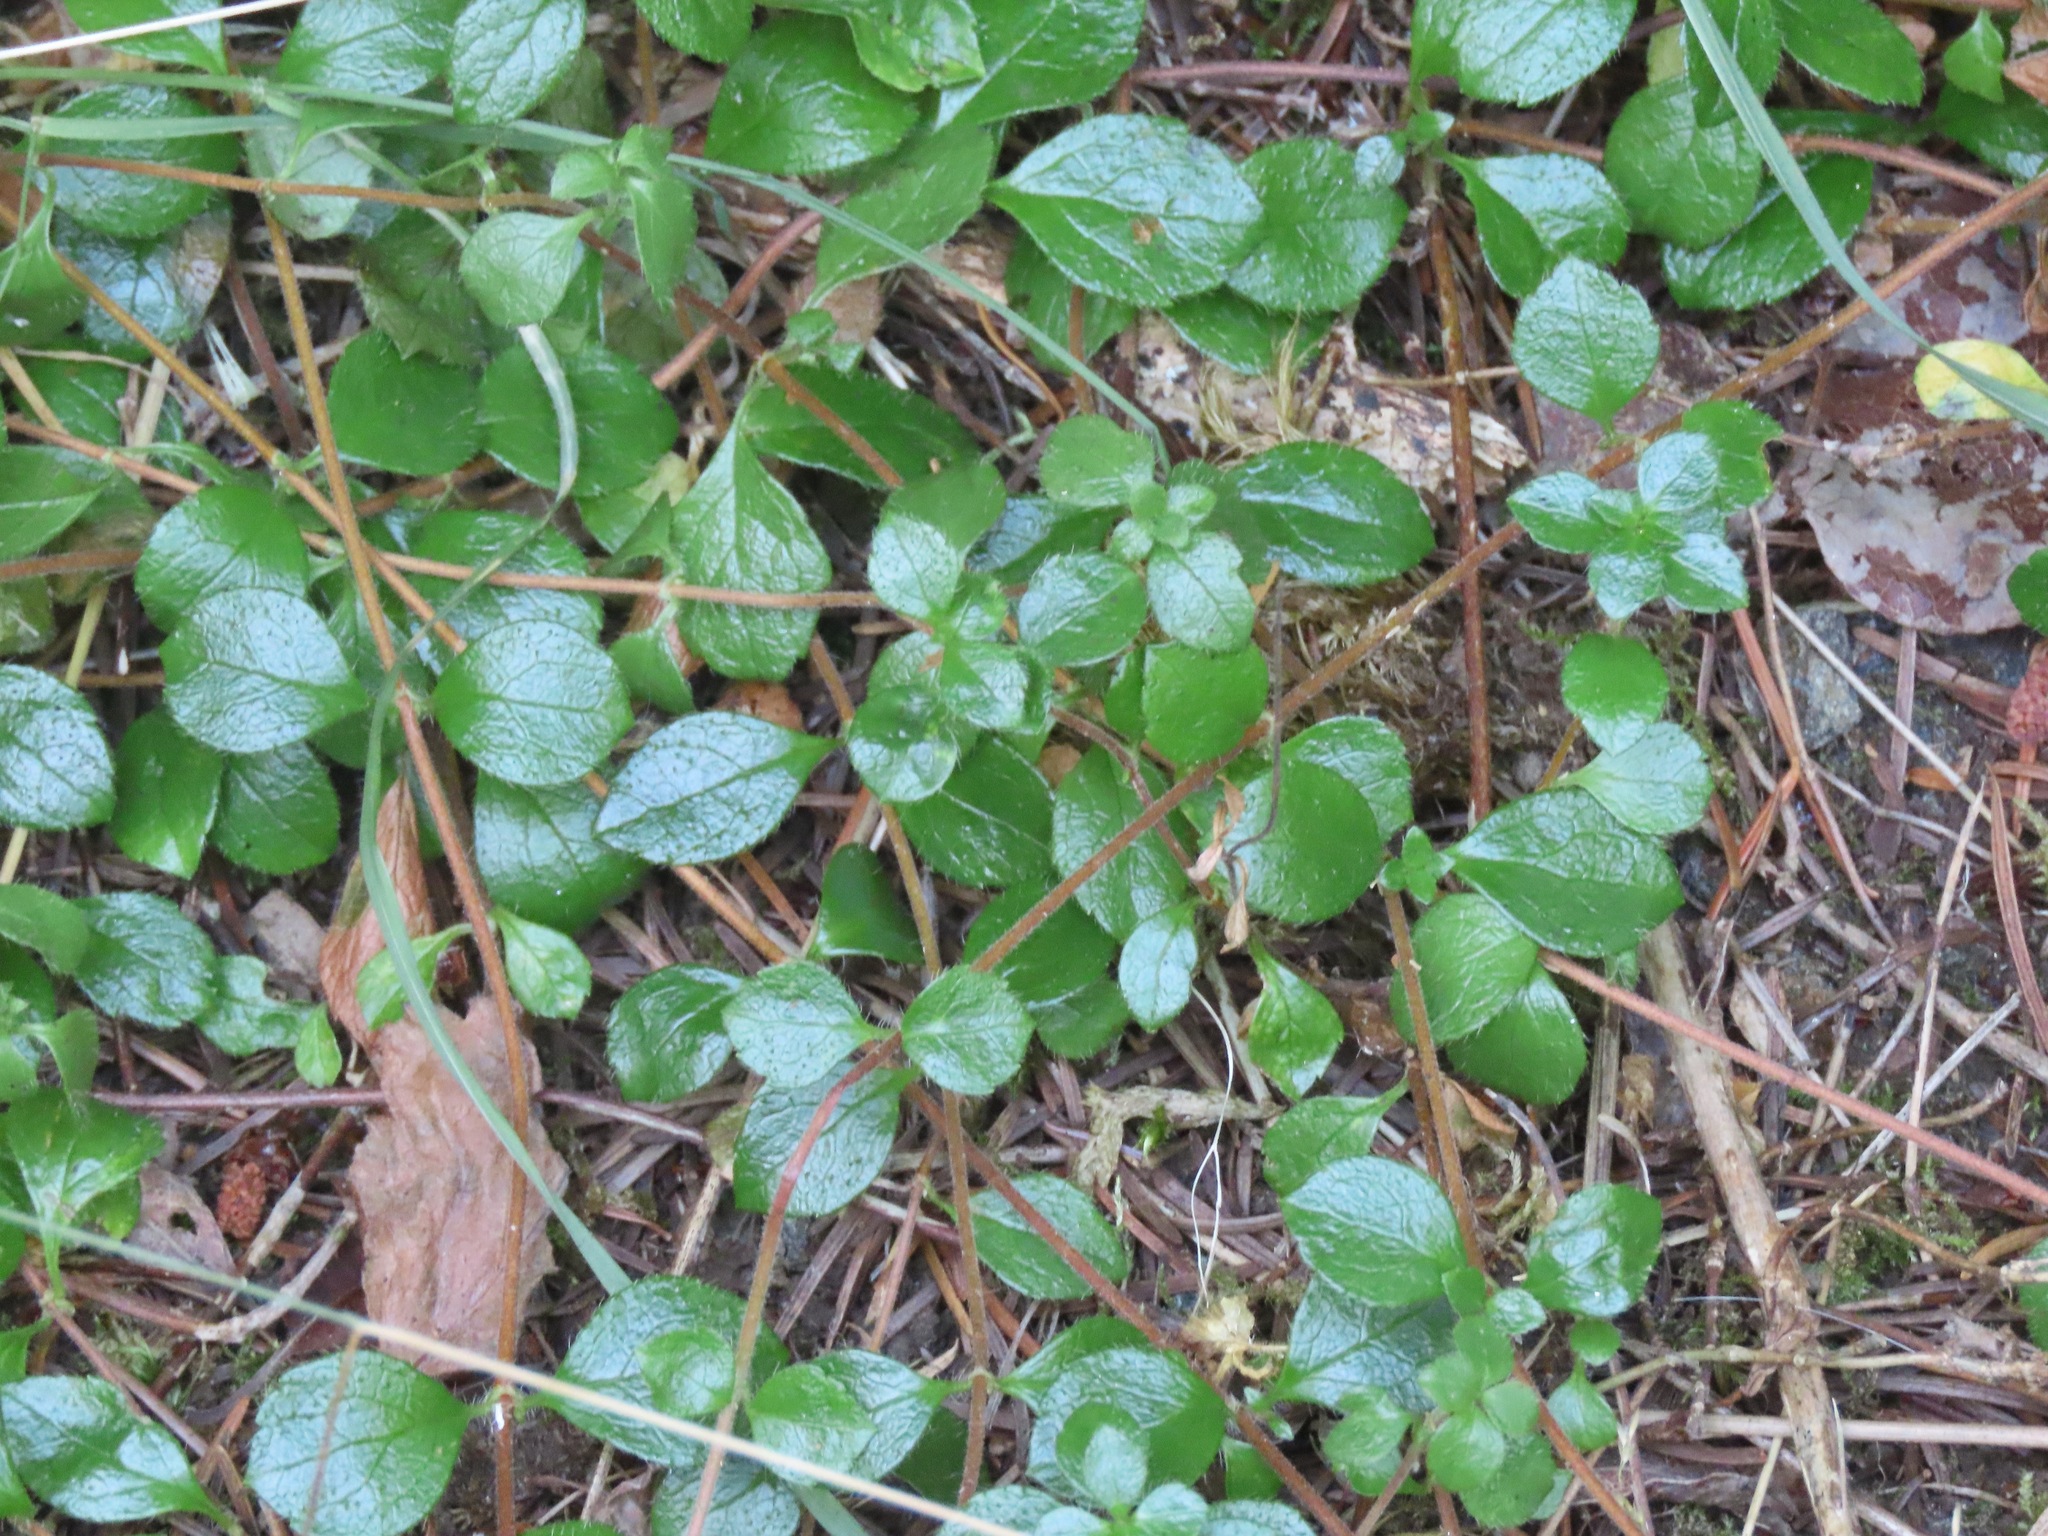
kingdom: Plantae
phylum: Tracheophyta
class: Magnoliopsida
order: Dipsacales
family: Caprifoliaceae
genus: Linnaea
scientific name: Linnaea borealis
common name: Twinflower
